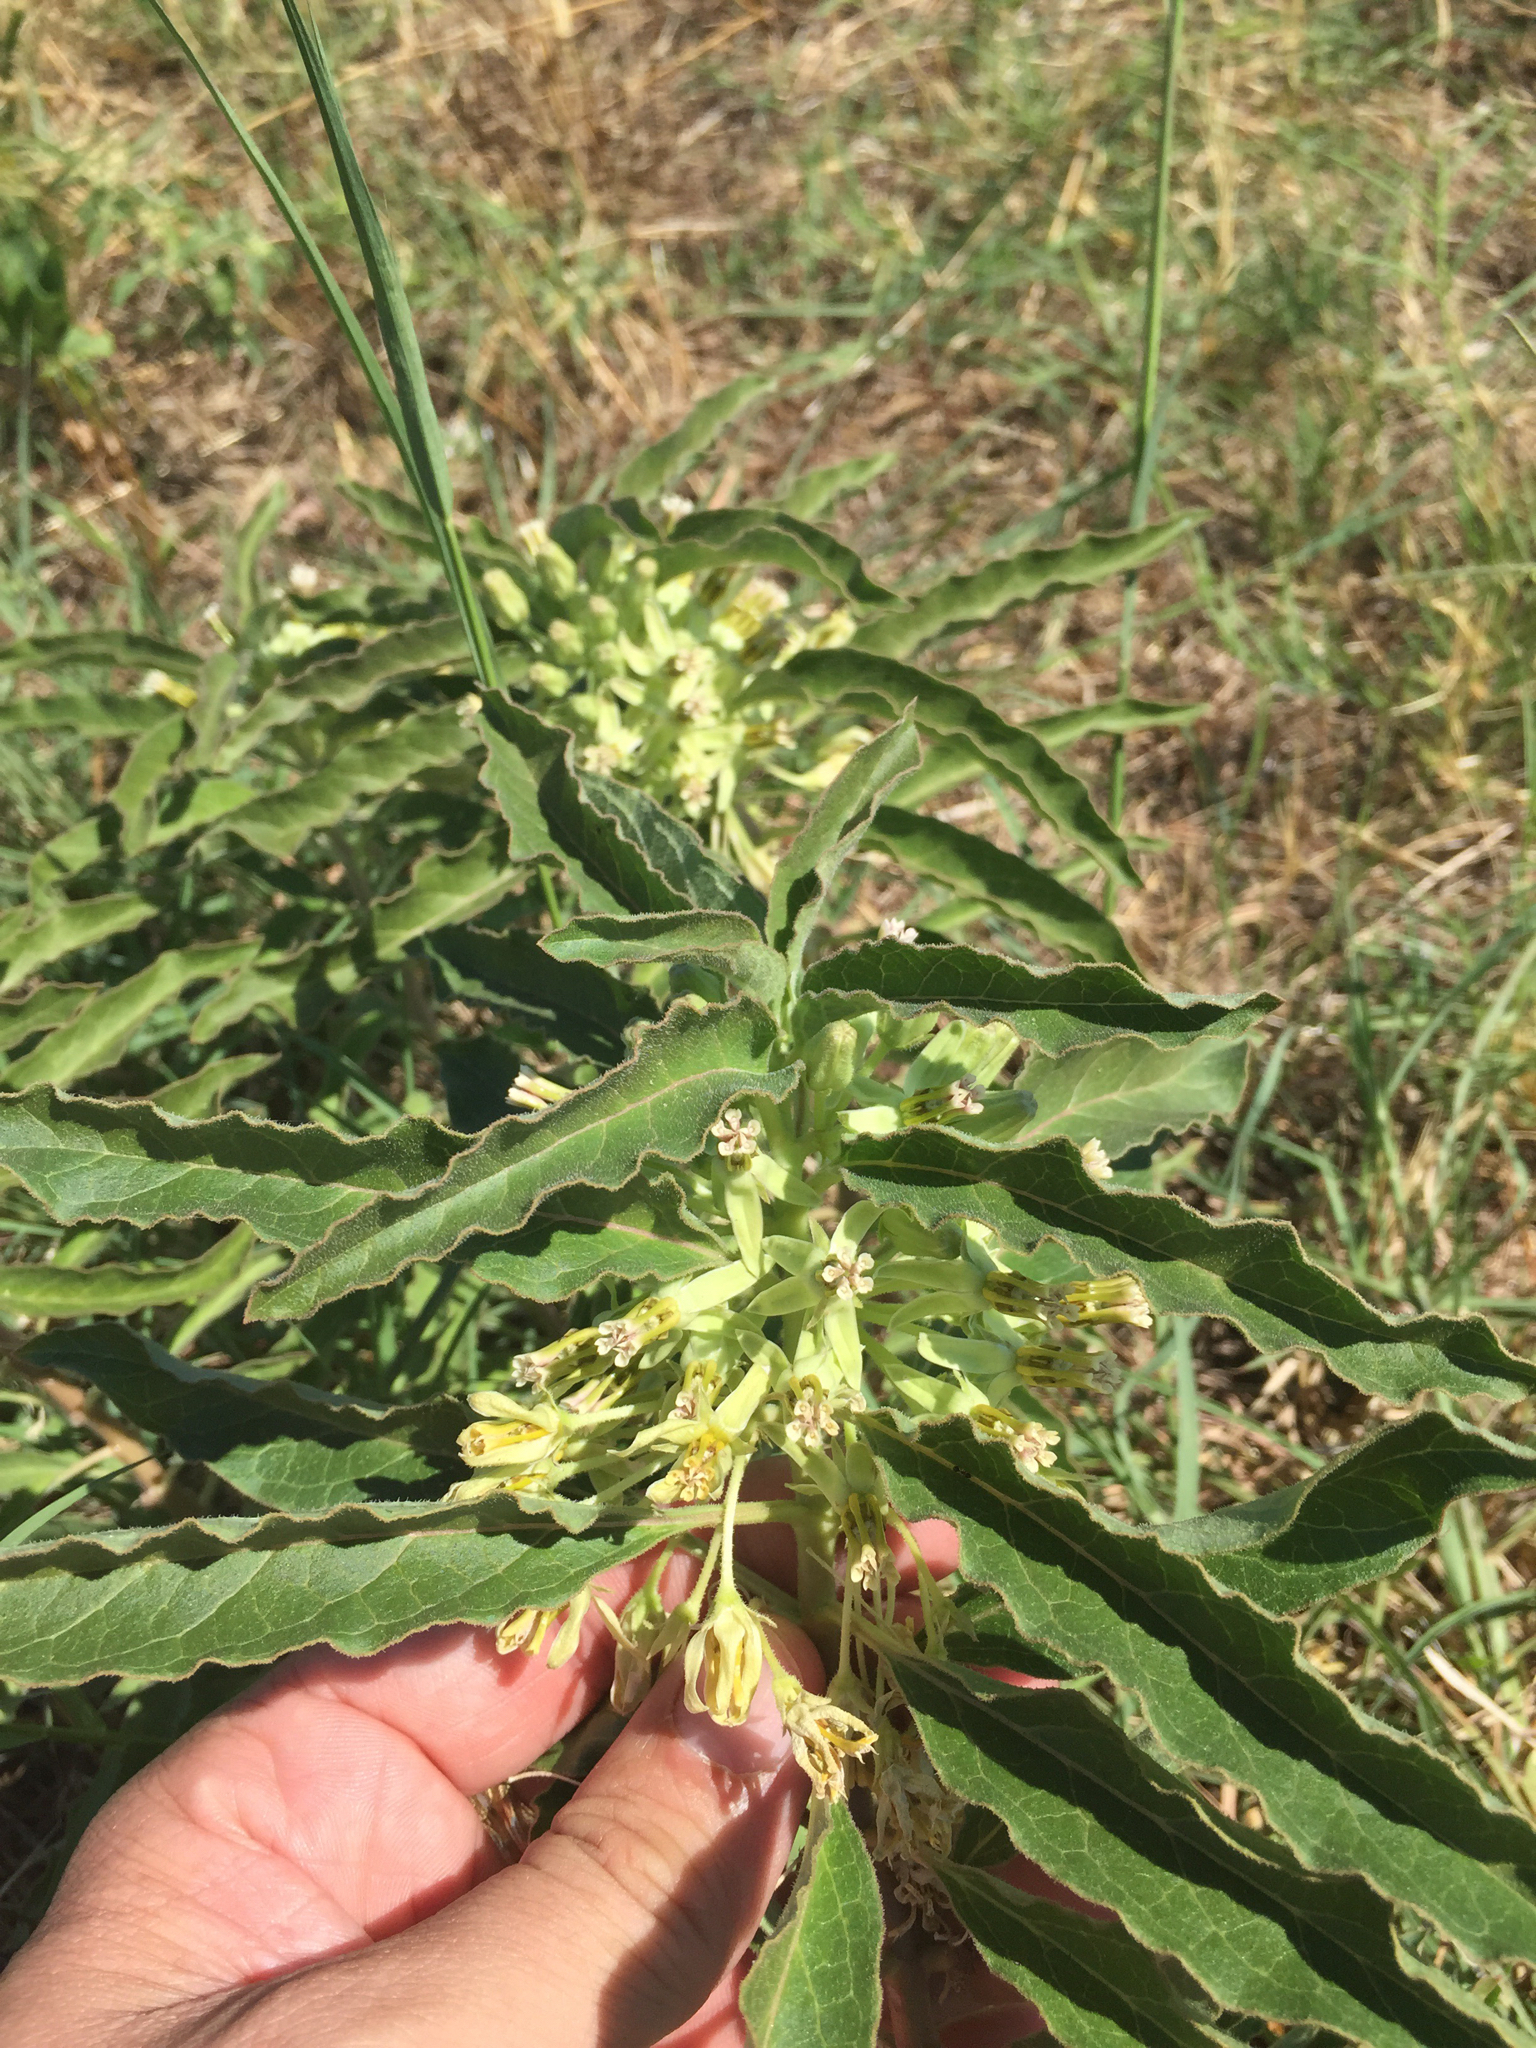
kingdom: Plantae
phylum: Tracheophyta
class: Magnoliopsida
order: Gentianales
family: Apocynaceae
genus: Asclepias
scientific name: Asclepias oenotheroides
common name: Zizotes milkweed
